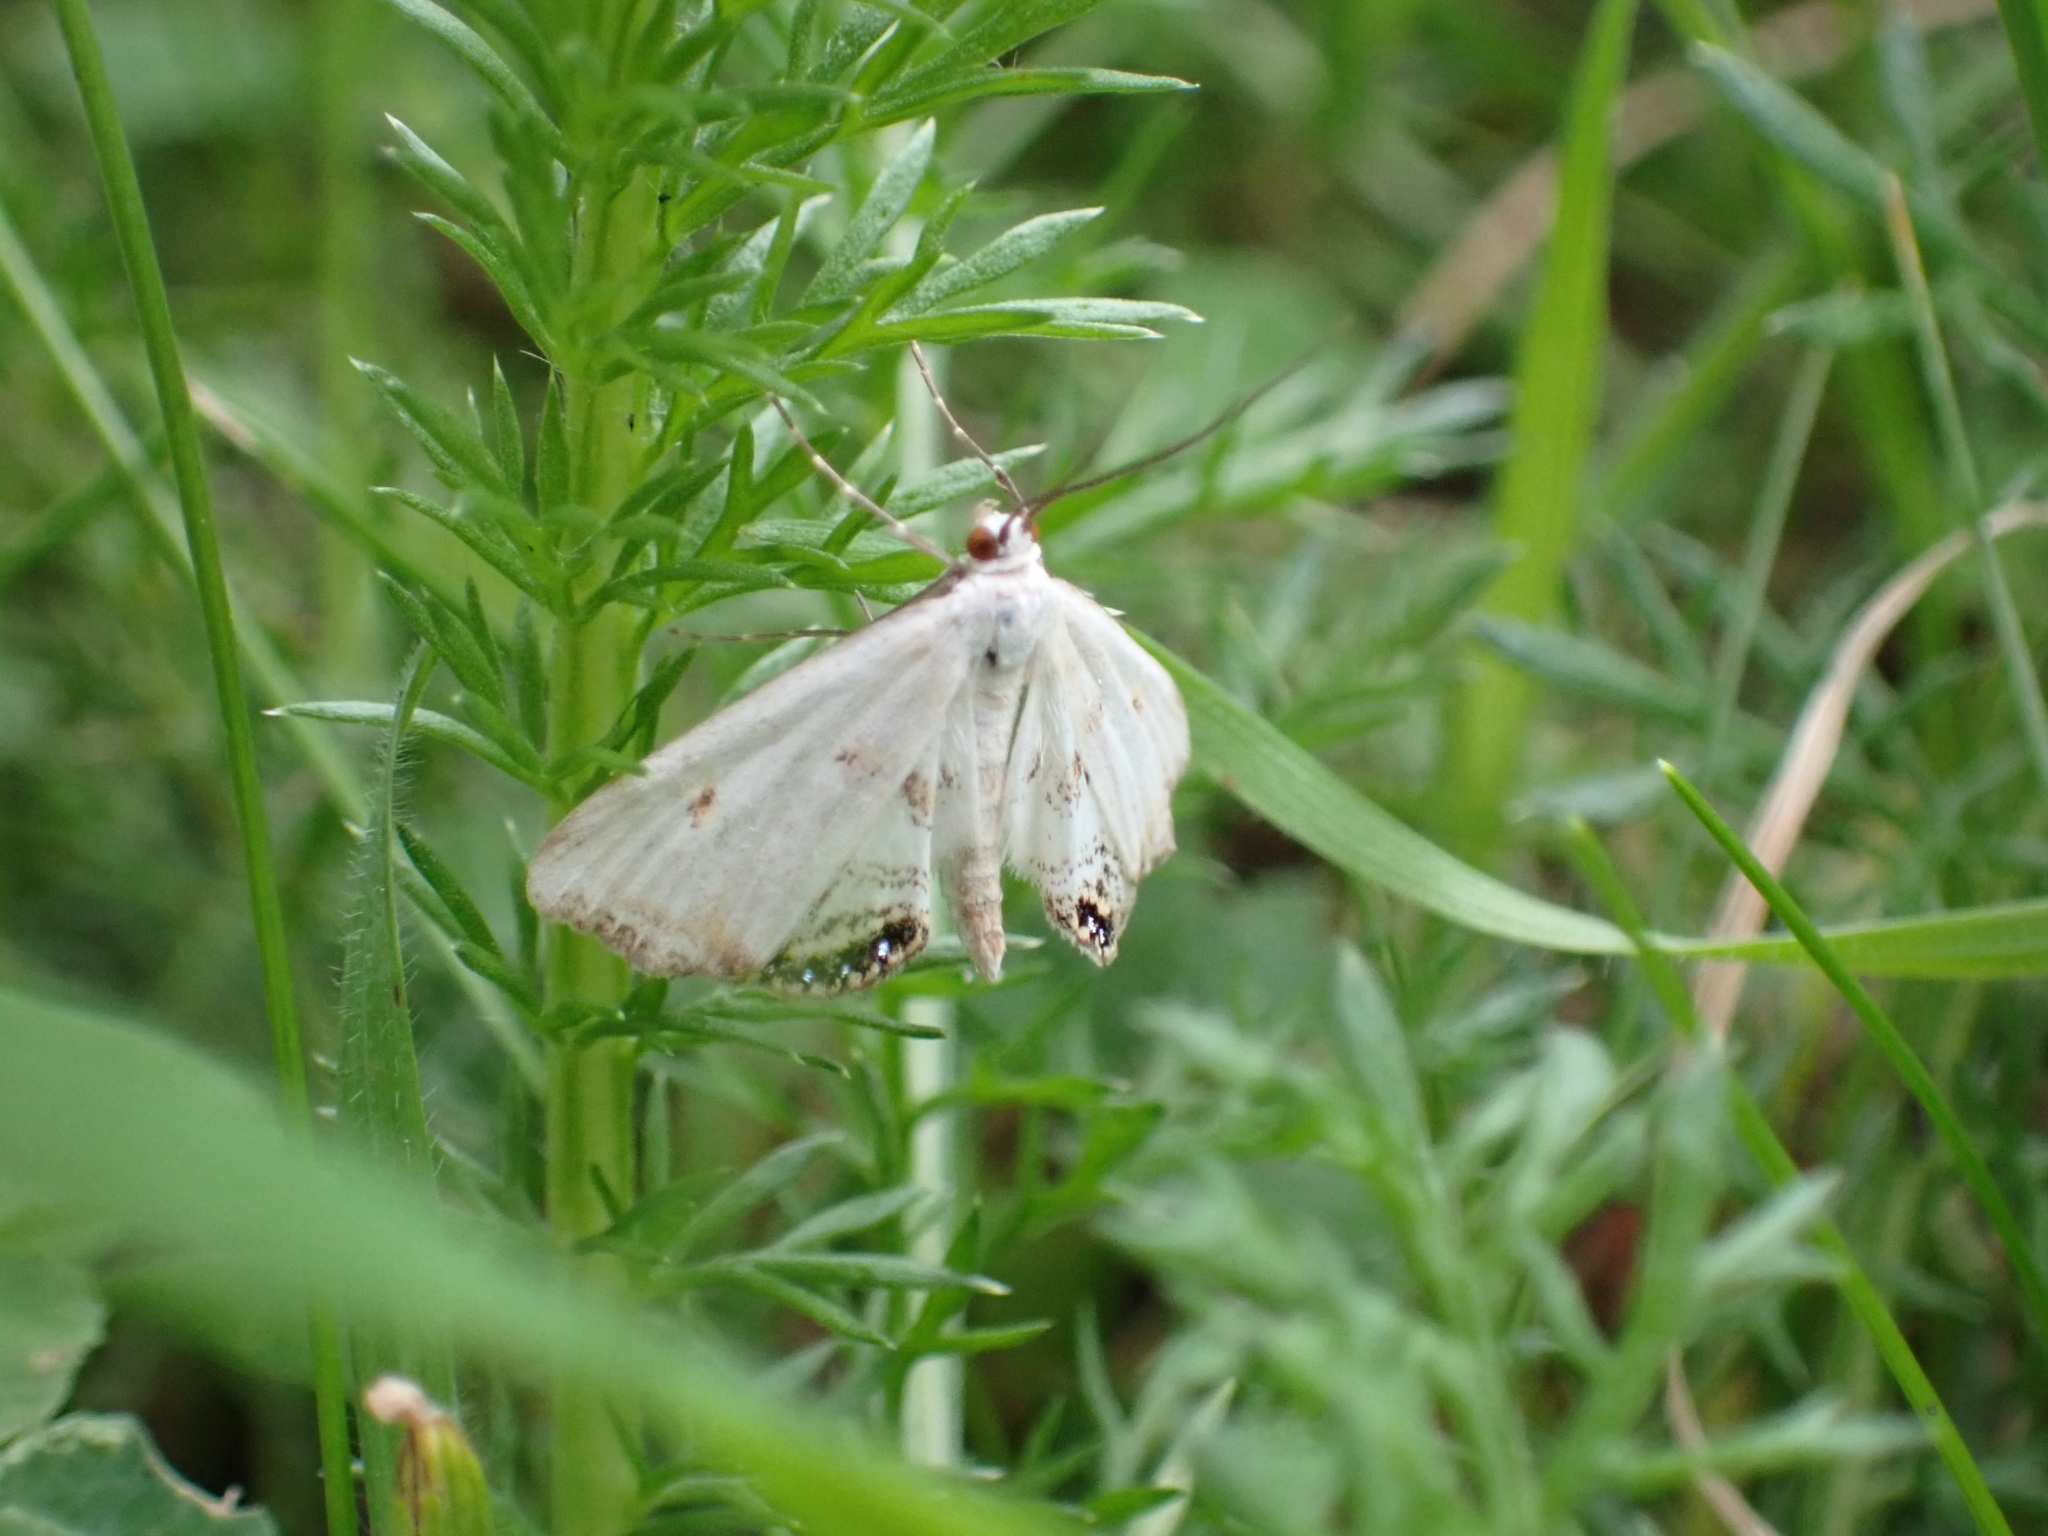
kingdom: Animalia
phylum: Arthropoda
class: Insecta
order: Lepidoptera
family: Crambidae
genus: Cataclysta
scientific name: Cataclysta lemnata
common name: Small china-mark
